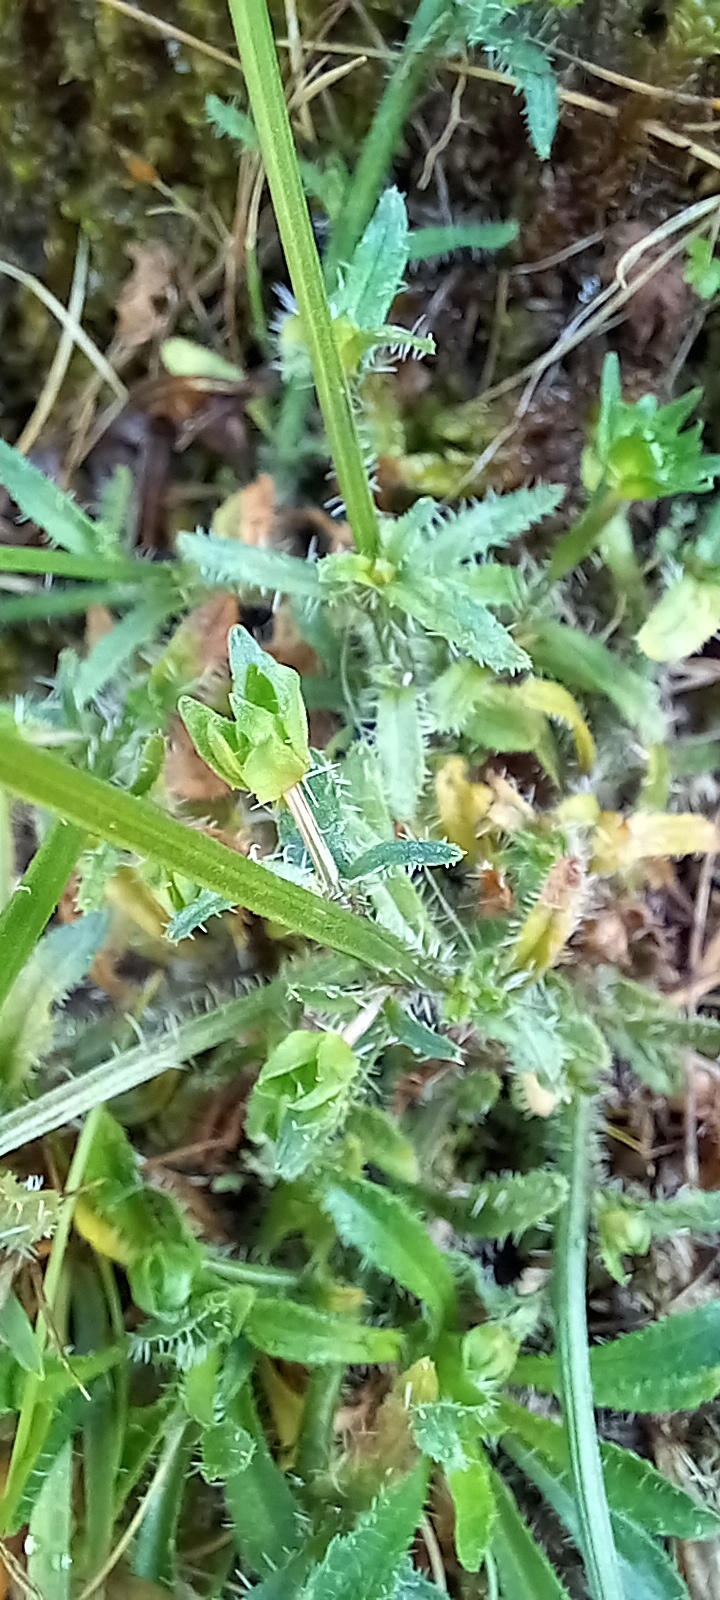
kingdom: Plantae
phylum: Tracheophyta
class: Magnoliopsida
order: Asterales
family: Campanulaceae
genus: Jasione
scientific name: Jasione montana
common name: Sheep's-bit
